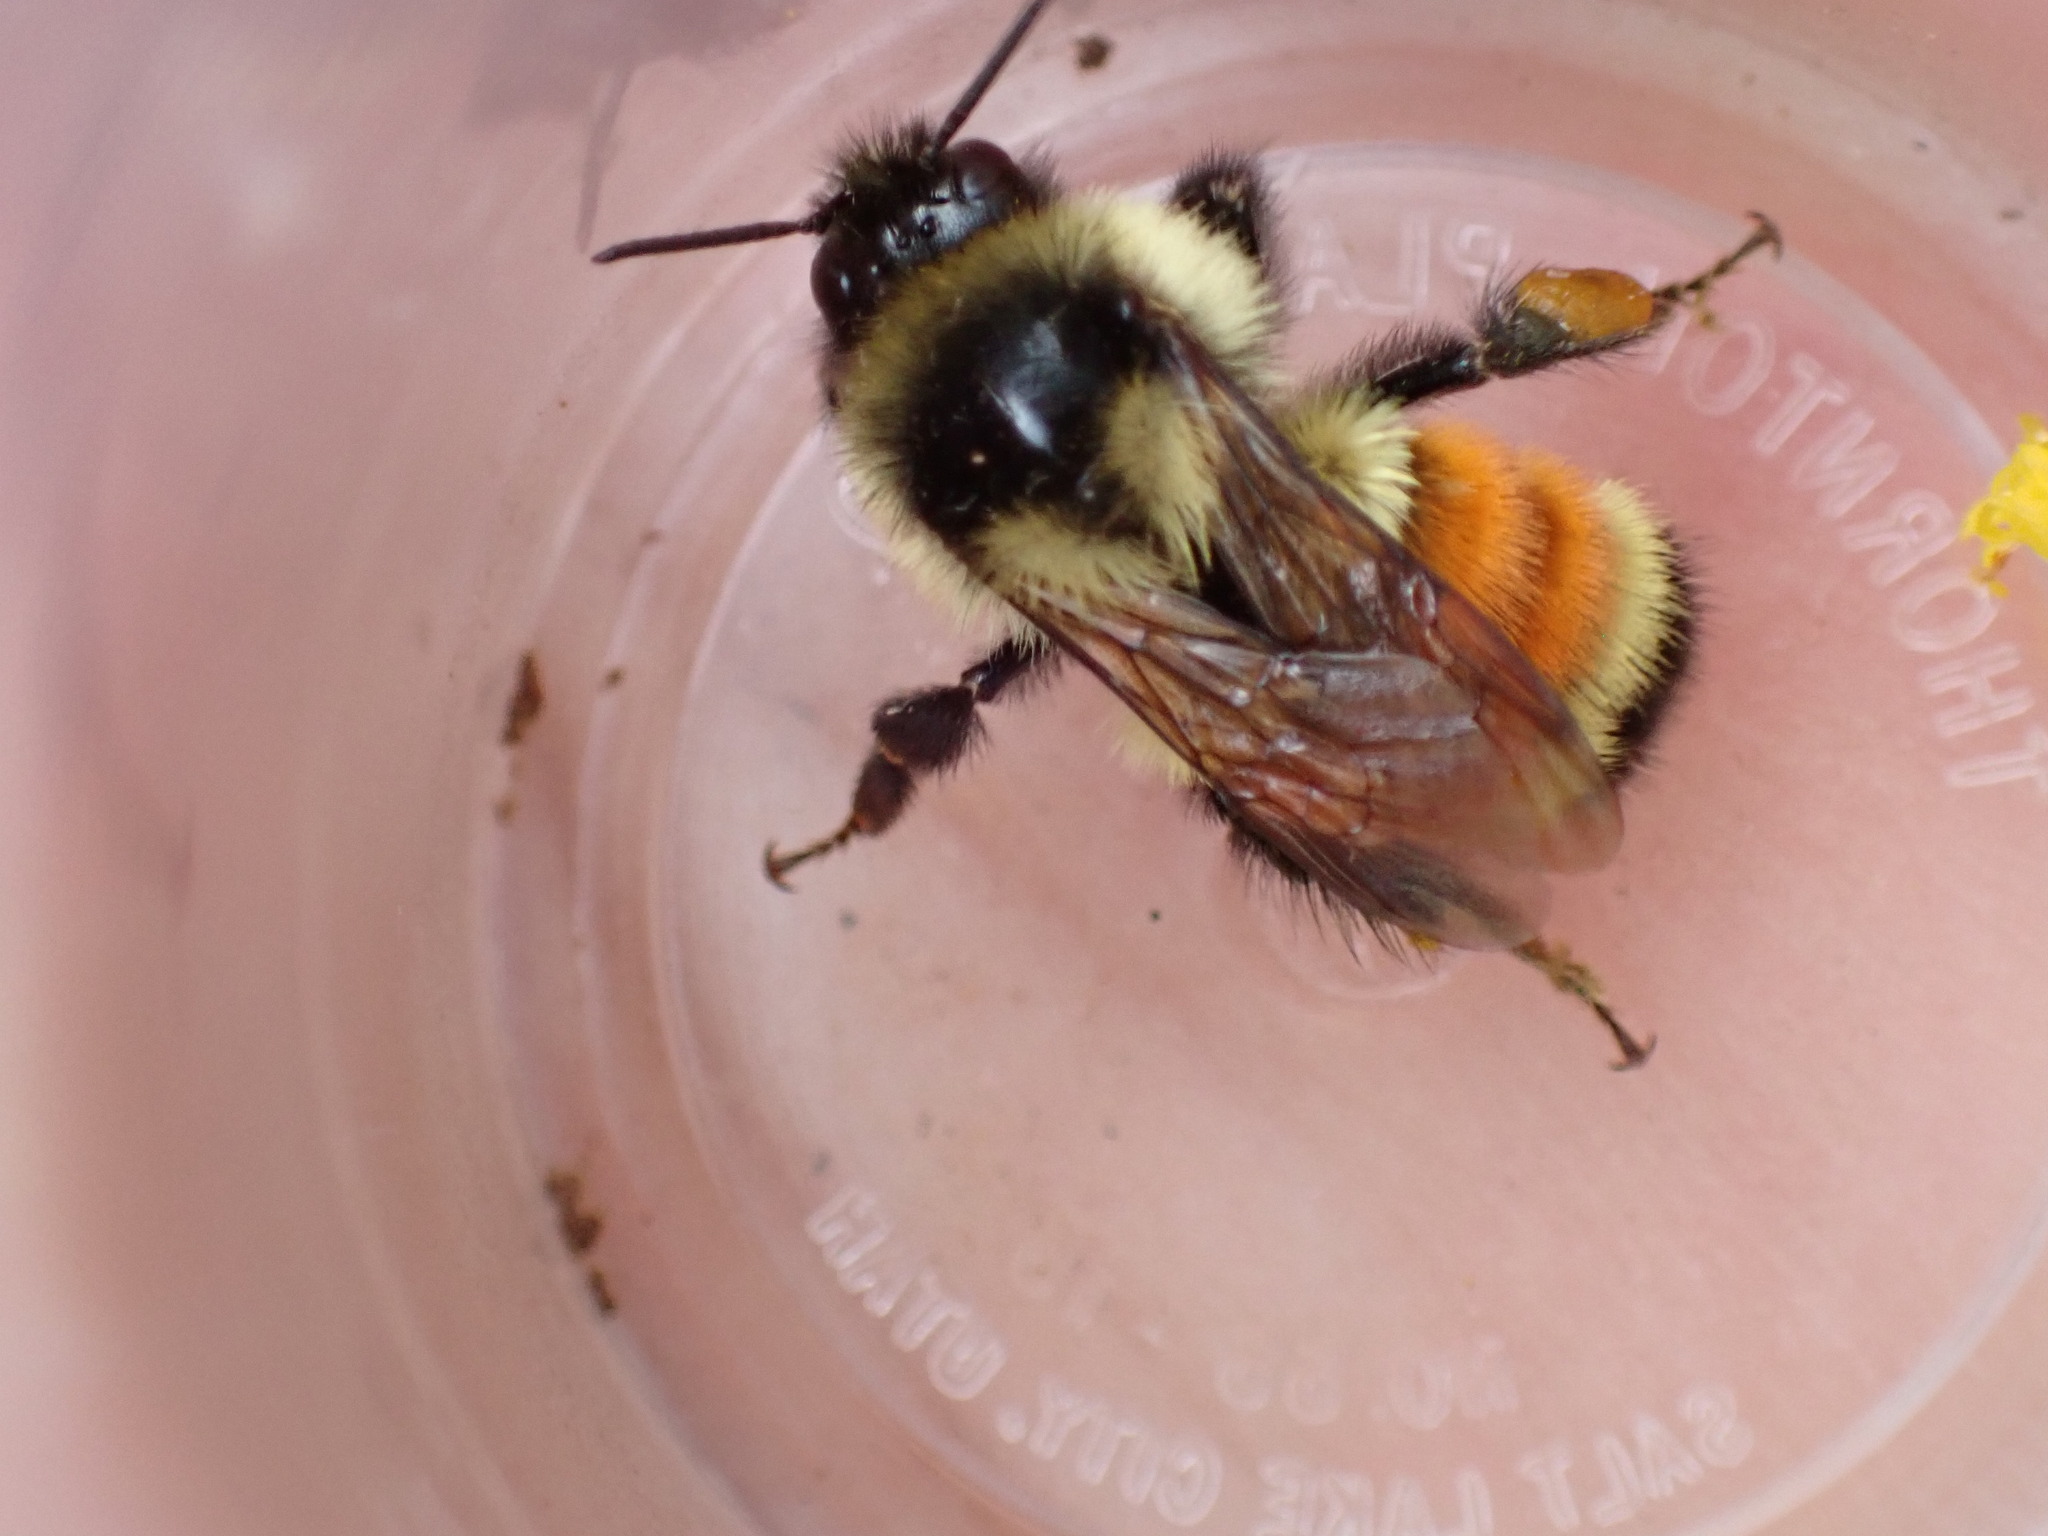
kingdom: Animalia
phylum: Arthropoda
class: Insecta
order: Hymenoptera
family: Apidae
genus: Bombus
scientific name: Bombus ternarius
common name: Tri-colored bumble bee
